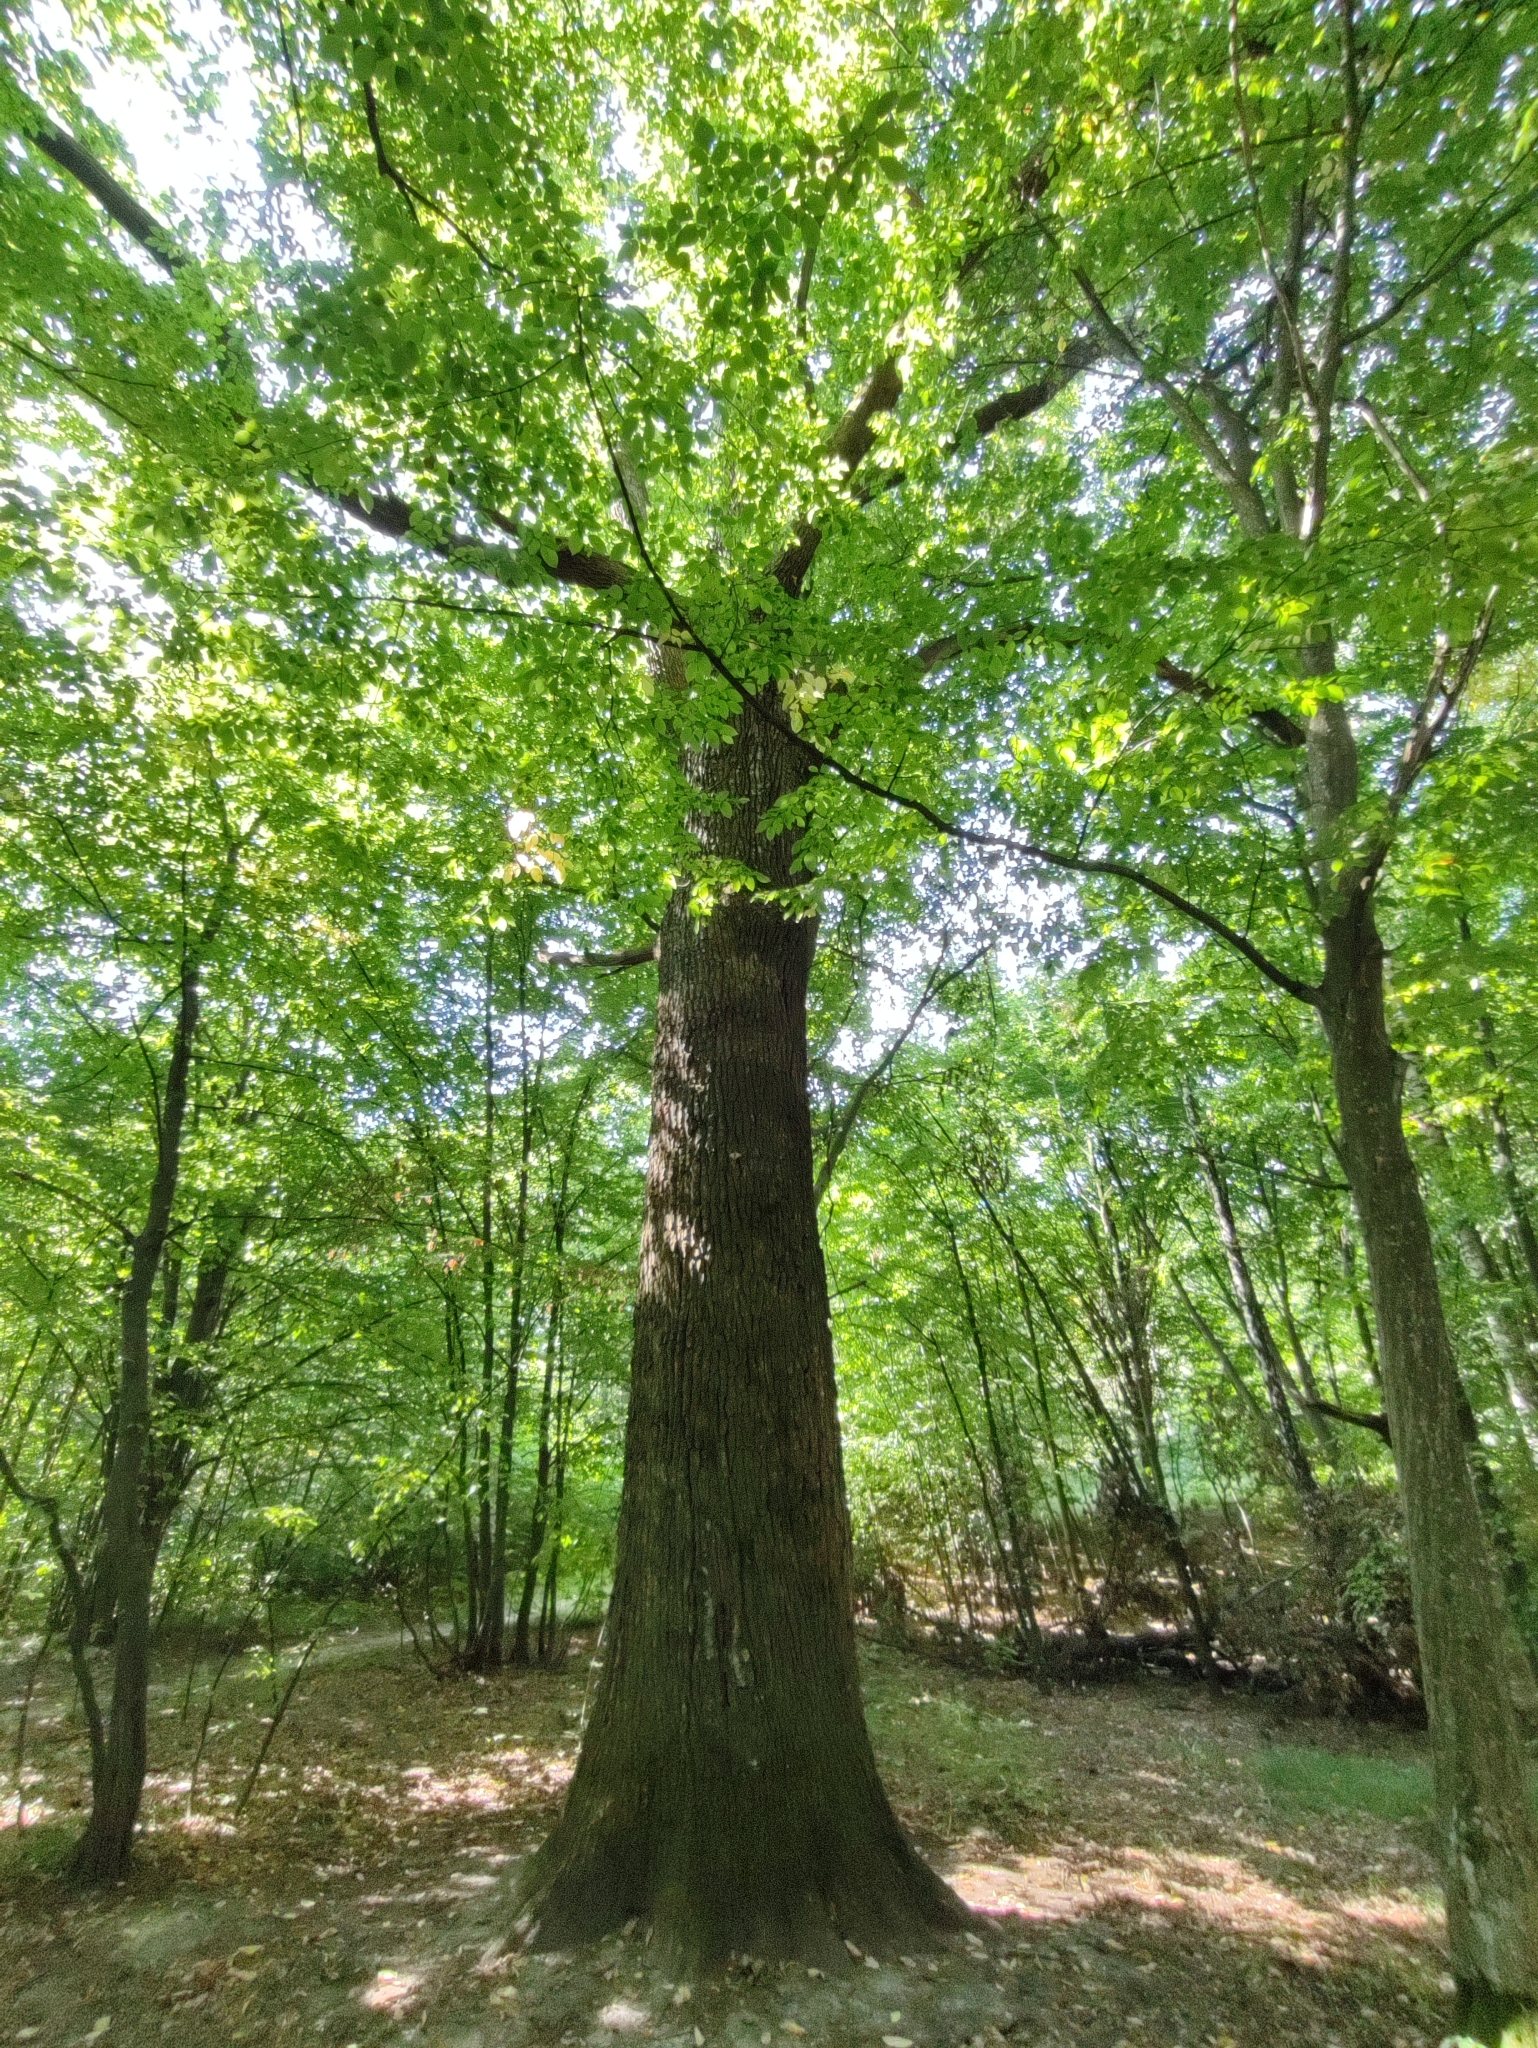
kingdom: Plantae
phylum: Tracheophyta
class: Magnoliopsida
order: Fagales
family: Fagaceae
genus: Quercus
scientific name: Quercus robur
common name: Pedunculate oak
